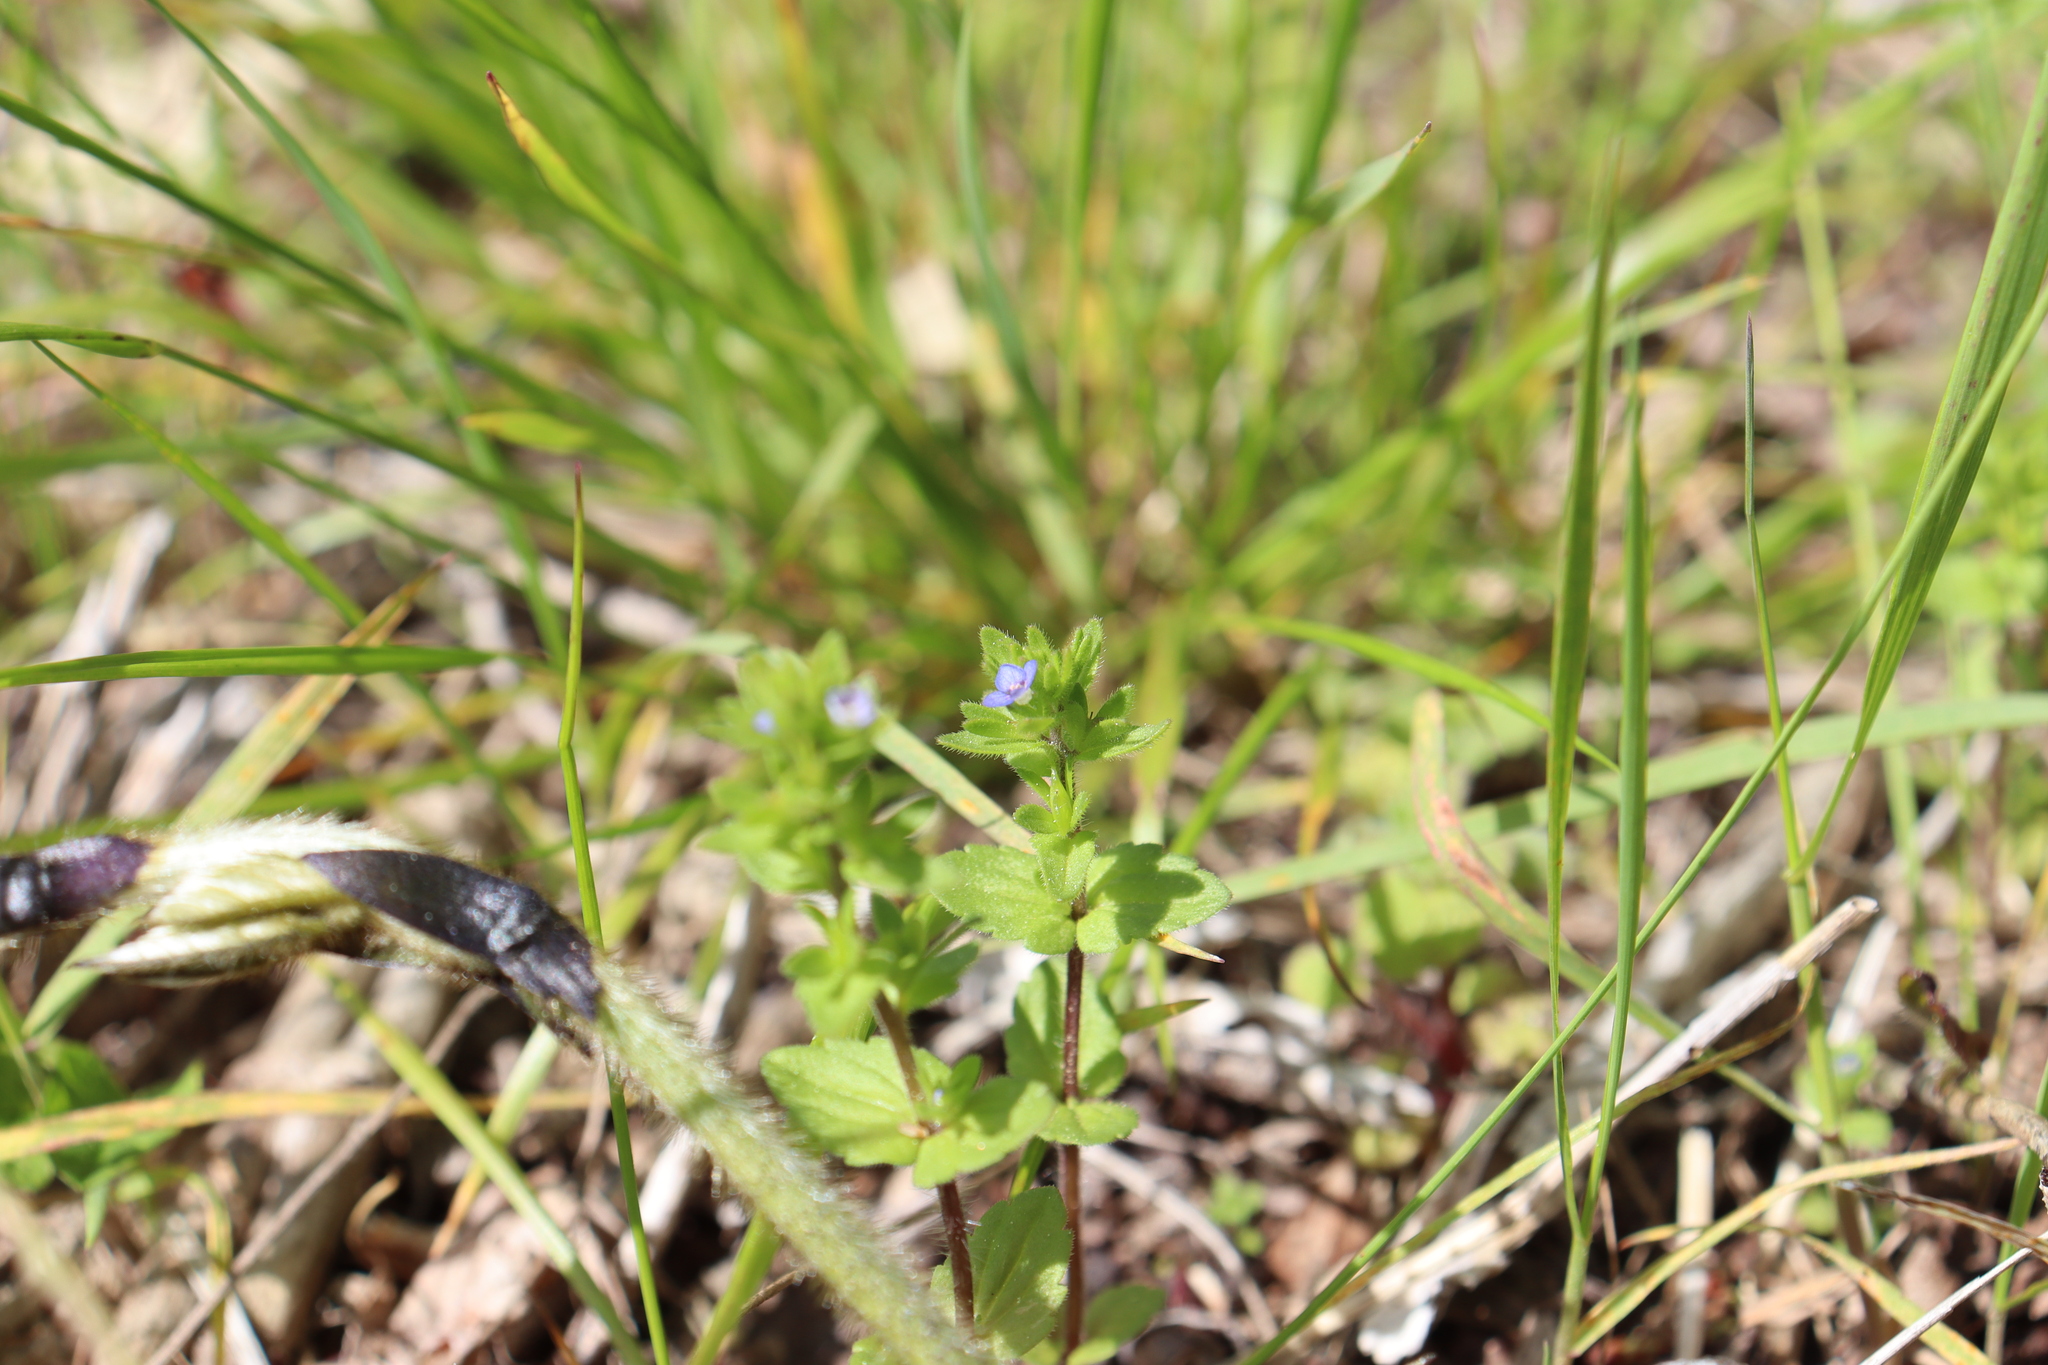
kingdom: Plantae
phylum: Tracheophyta
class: Magnoliopsida
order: Lamiales
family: Plantaginaceae
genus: Veronica
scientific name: Veronica arvensis
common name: Corn speedwell
